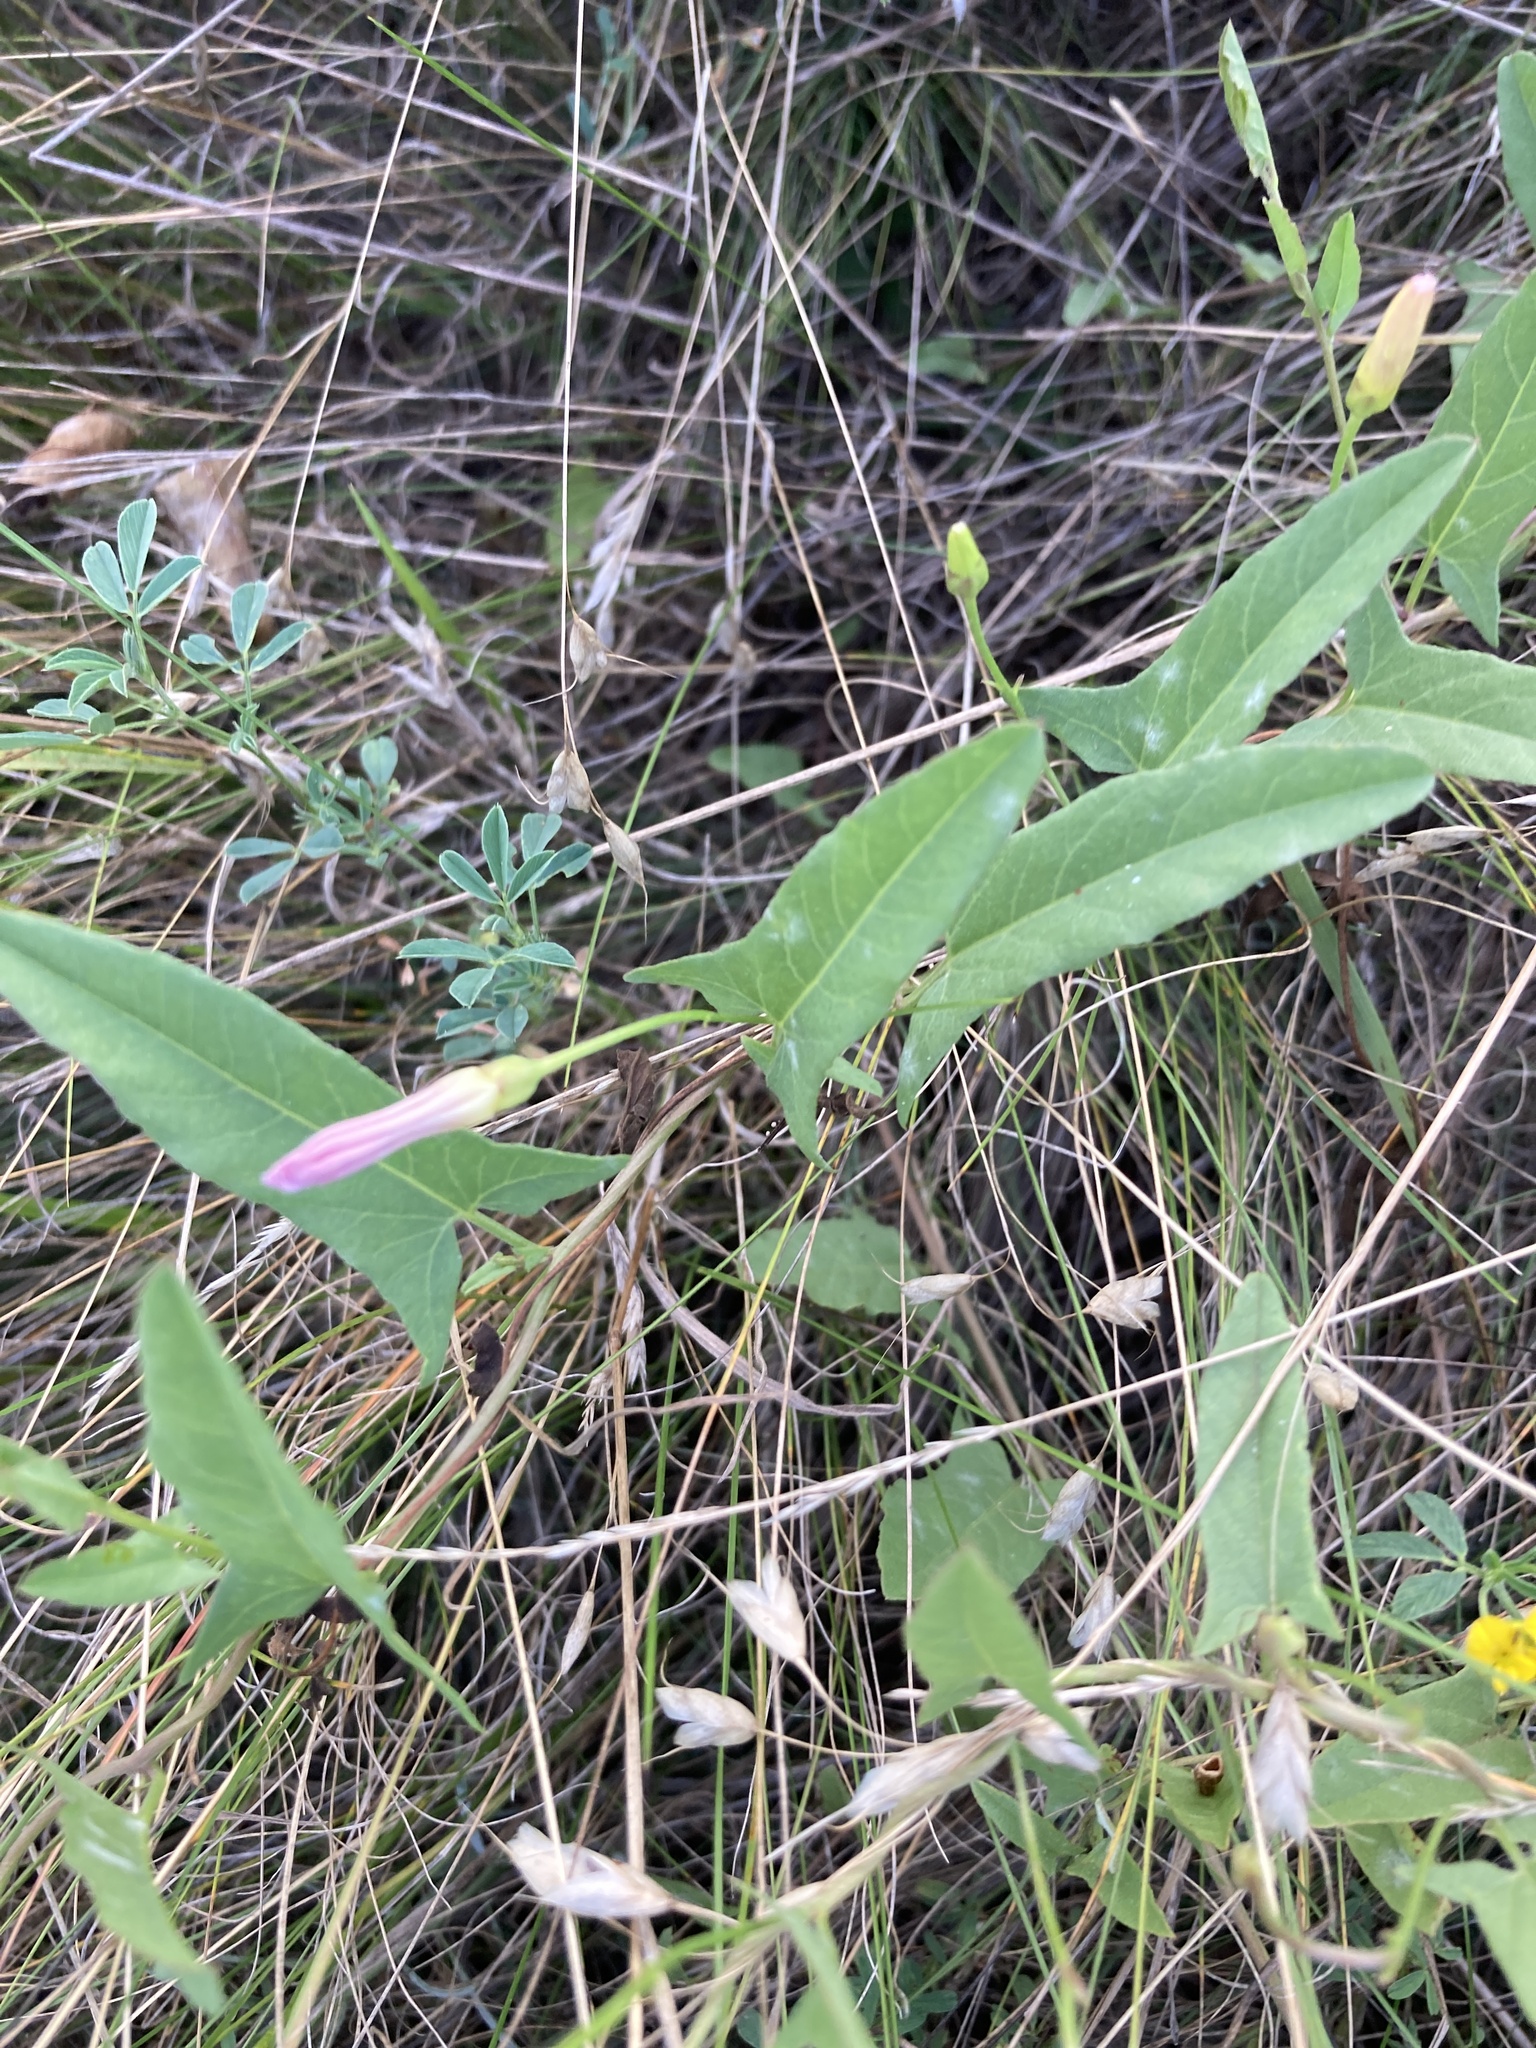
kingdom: Plantae
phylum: Tracheophyta
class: Magnoliopsida
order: Solanales
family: Convolvulaceae
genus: Convolvulus
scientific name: Convolvulus arvensis
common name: Field bindweed
